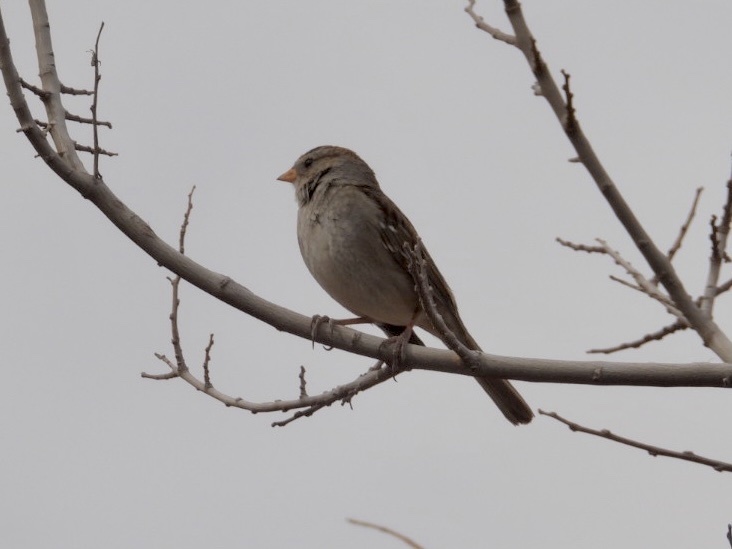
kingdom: Animalia
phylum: Chordata
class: Aves
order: Passeriformes
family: Passerellidae
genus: Zonotrichia
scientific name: Zonotrichia leucophrys
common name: White-crowned sparrow
